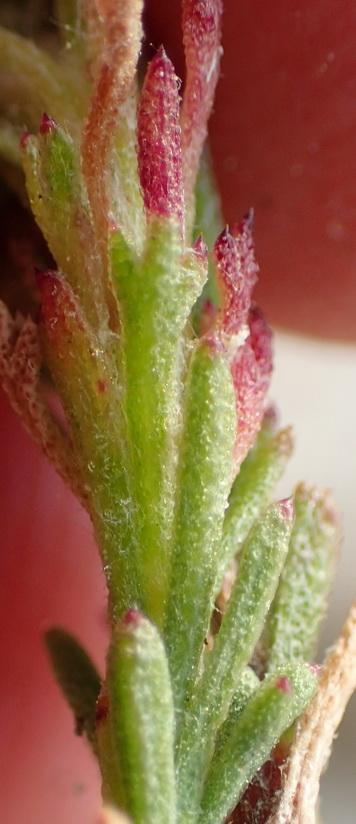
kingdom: Plantae
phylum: Tracheophyta
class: Magnoliopsida
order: Asterales
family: Asteraceae
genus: Ursinia
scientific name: Ursinia trifida
